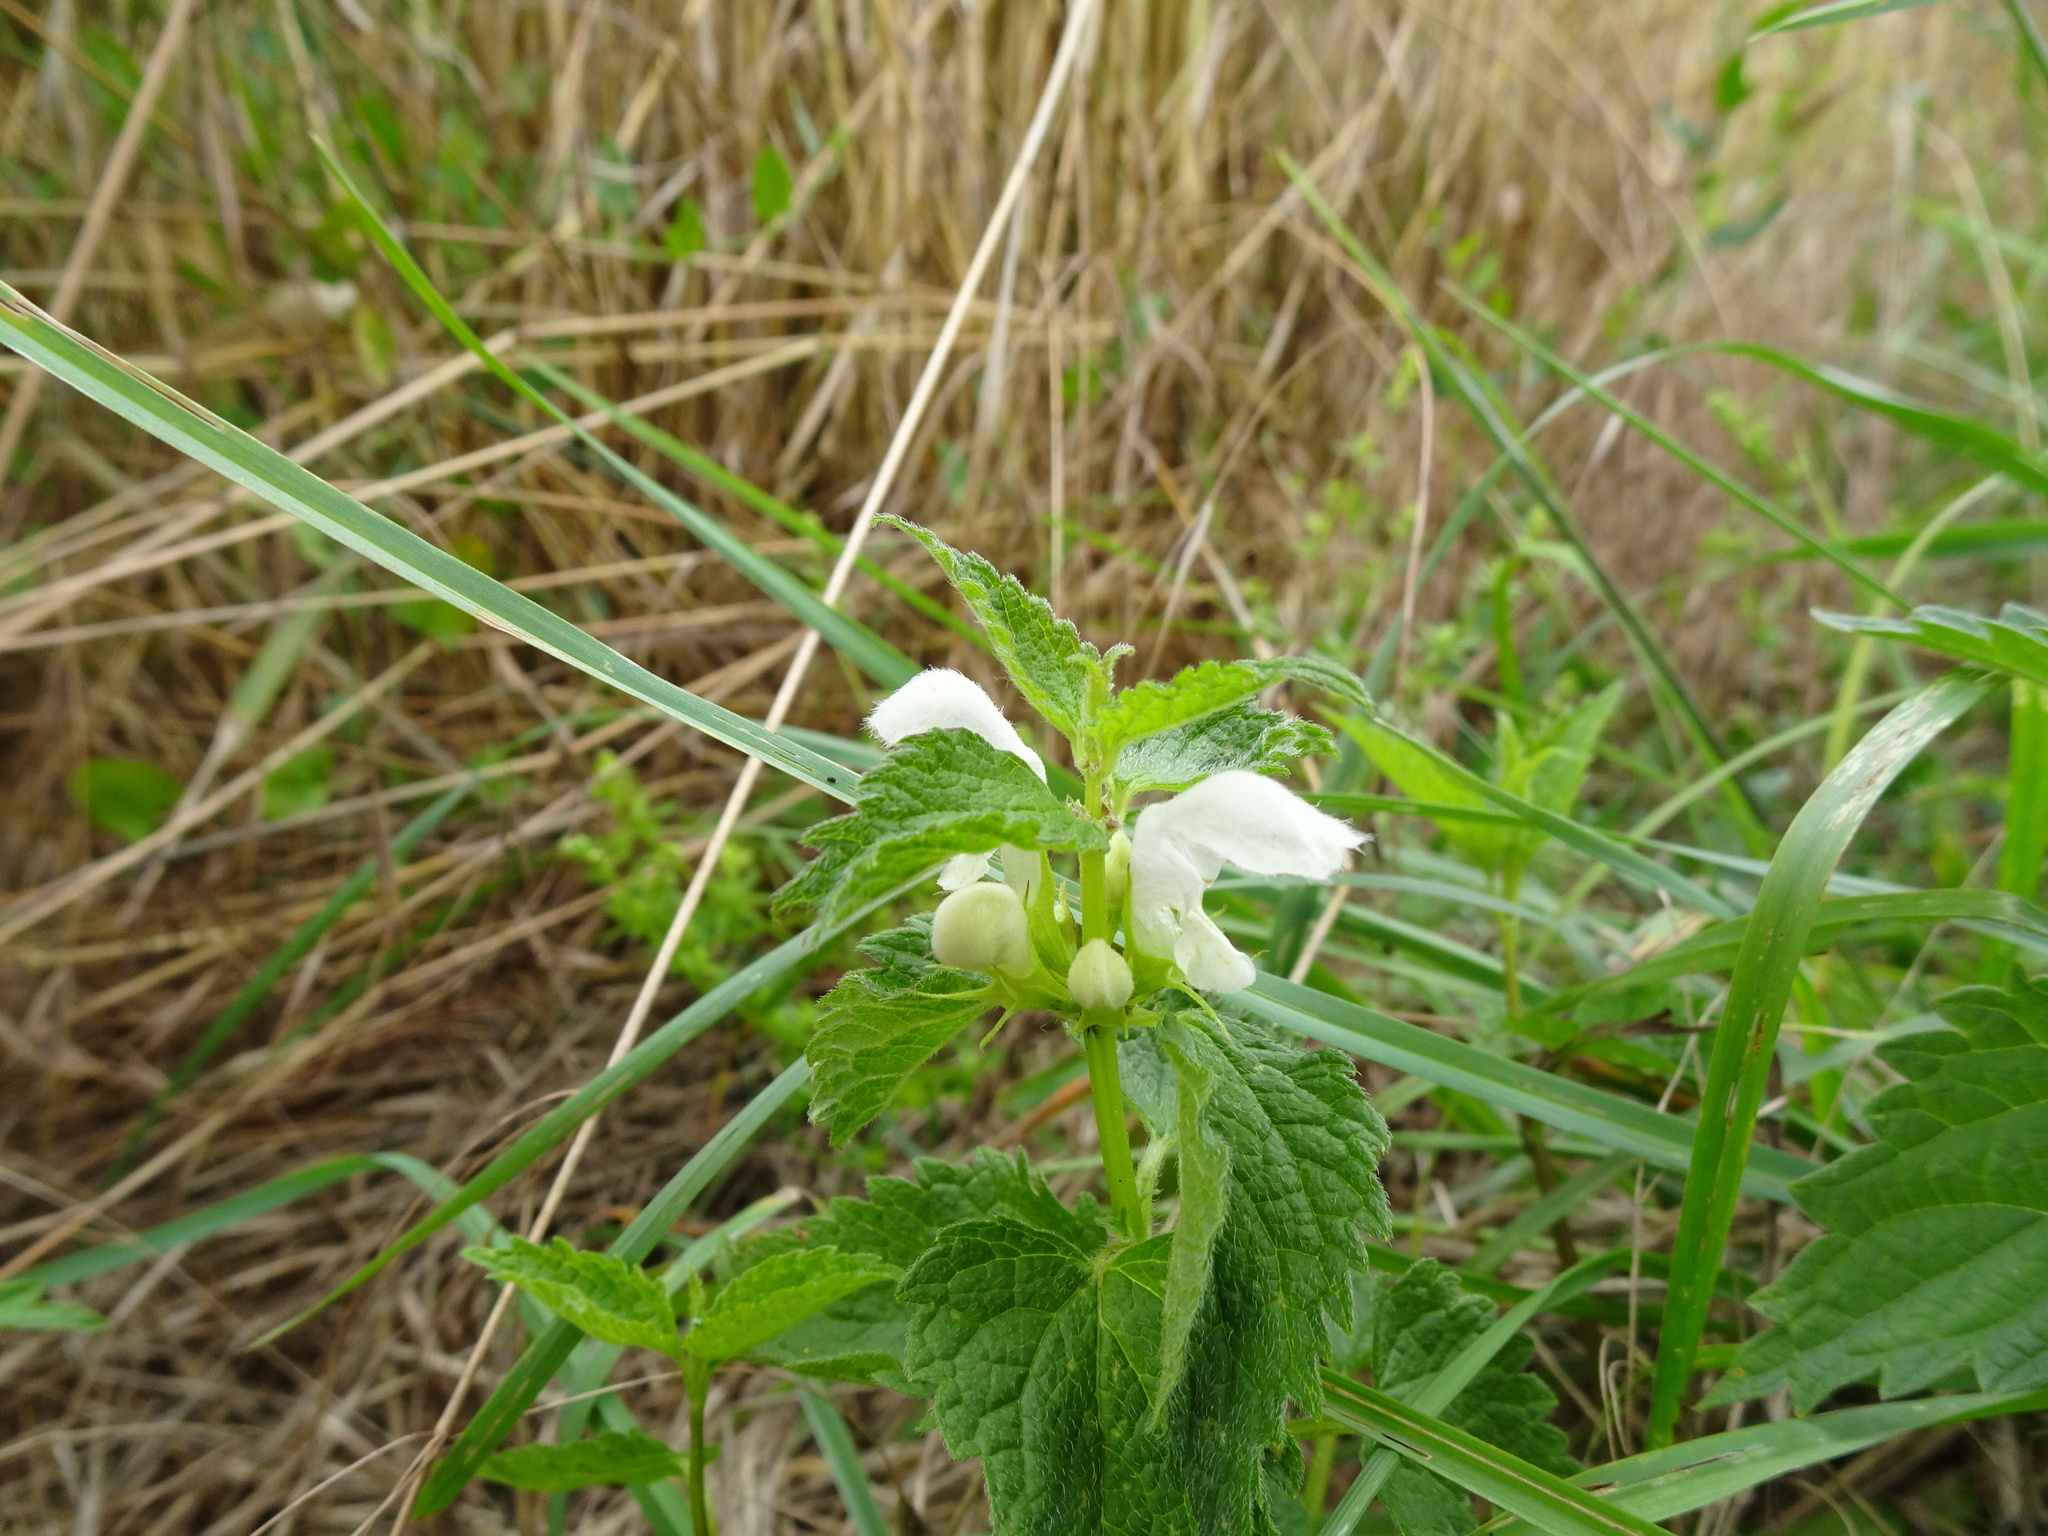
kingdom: Plantae
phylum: Tracheophyta
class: Magnoliopsida
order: Lamiales
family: Lamiaceae
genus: Lamium
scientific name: Lamium album
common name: White dead-nettle
